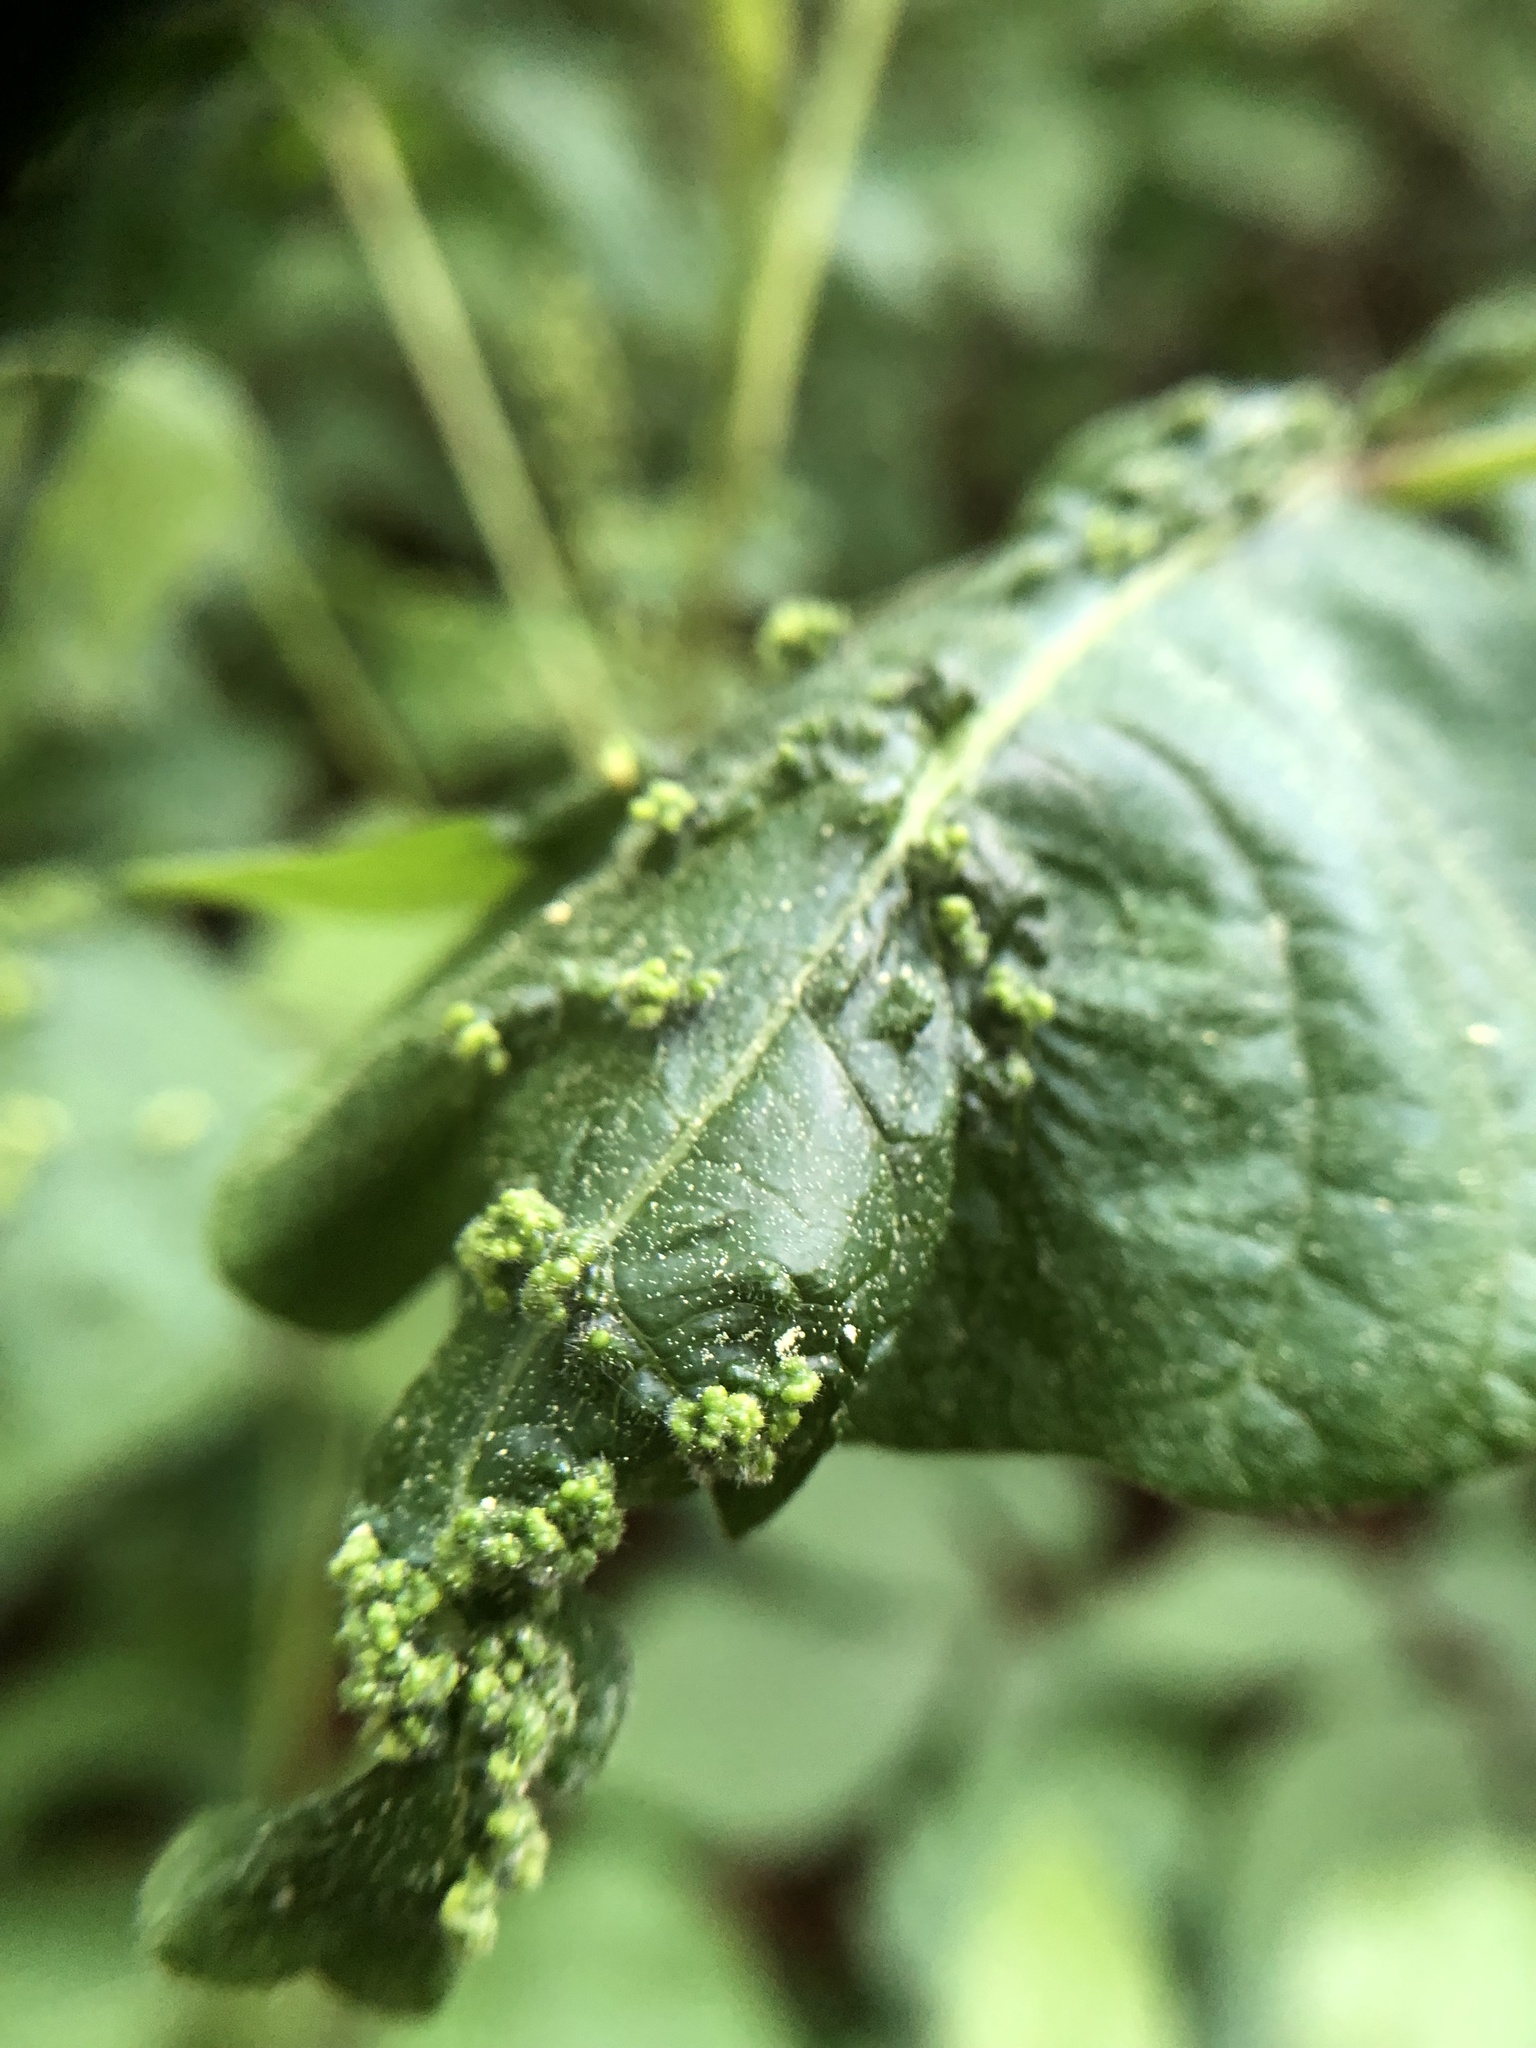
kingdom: Animalia
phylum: Arthropoda
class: Arachnida
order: Trombidiformes
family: Eriophyidae
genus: Aceria
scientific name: Aceria
